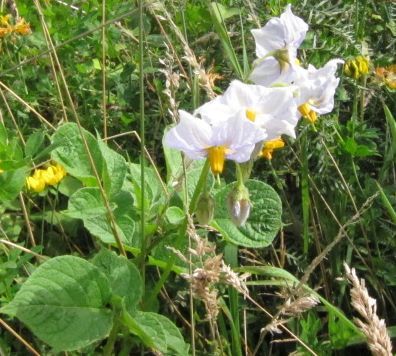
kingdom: Plantae
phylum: Tracheophyta
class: Magnoliopsida
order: Solanales
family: Solanaceae
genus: Solanum
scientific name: Solanum tuberosum
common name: Potato
